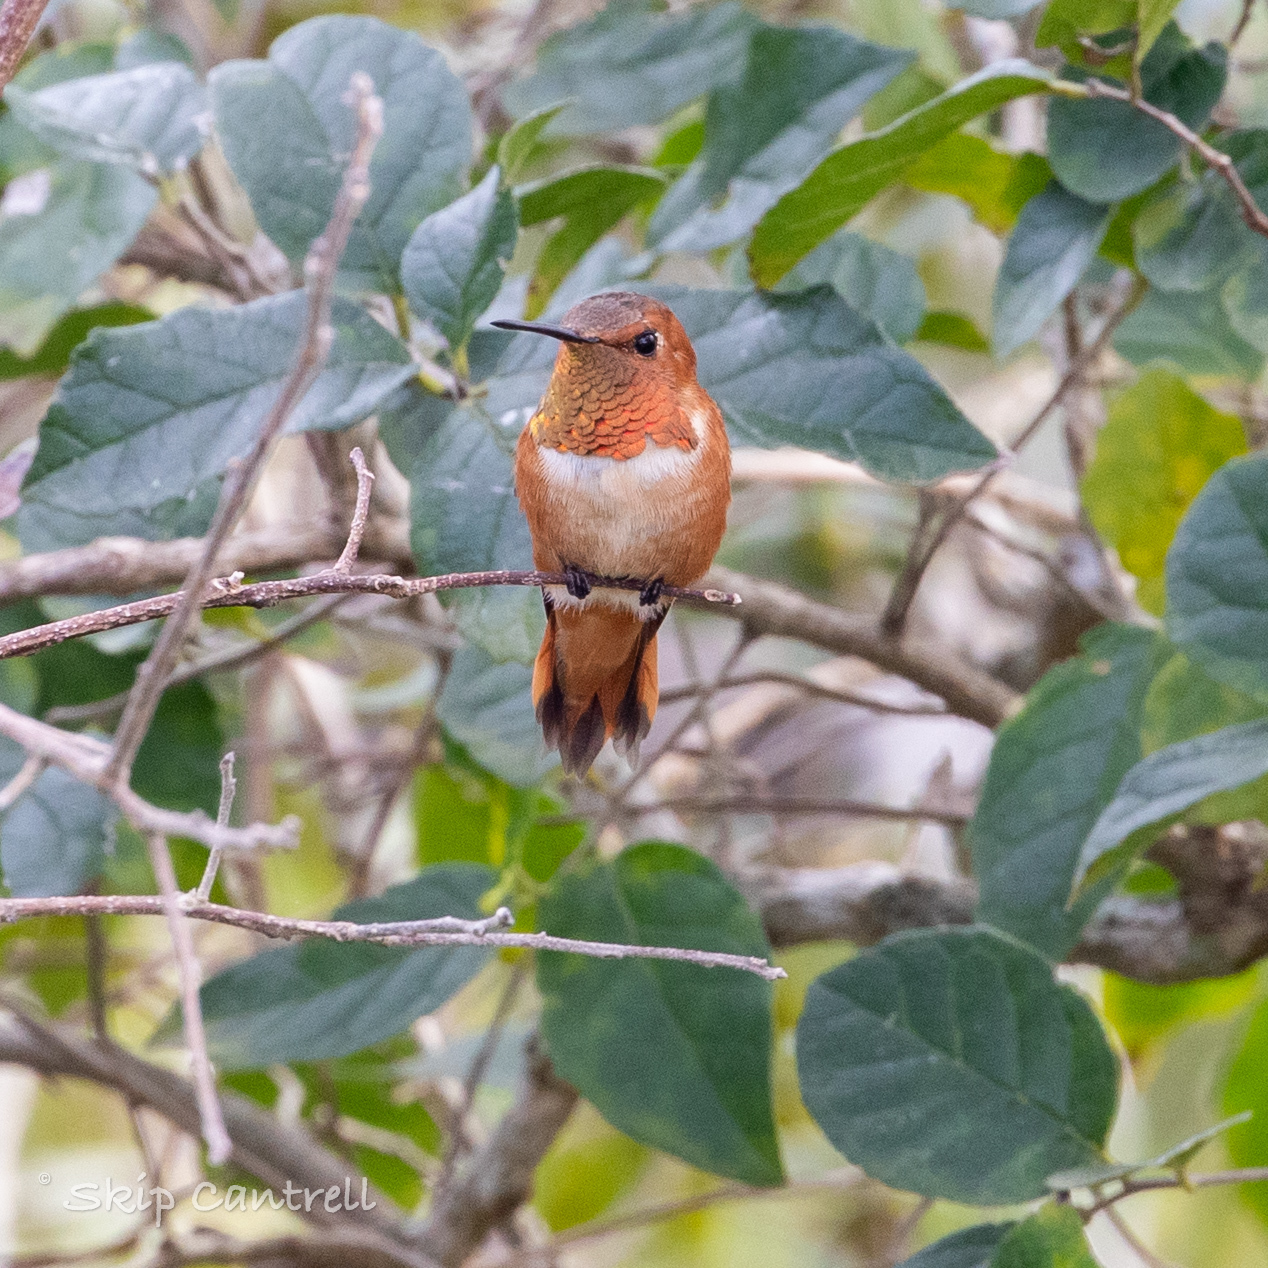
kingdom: Animalia
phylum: Chordata
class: Aves
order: Apodiformes
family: Trochilidae
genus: Selasphorus
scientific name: Selasphorus rufus
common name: Rufous hummingbird
